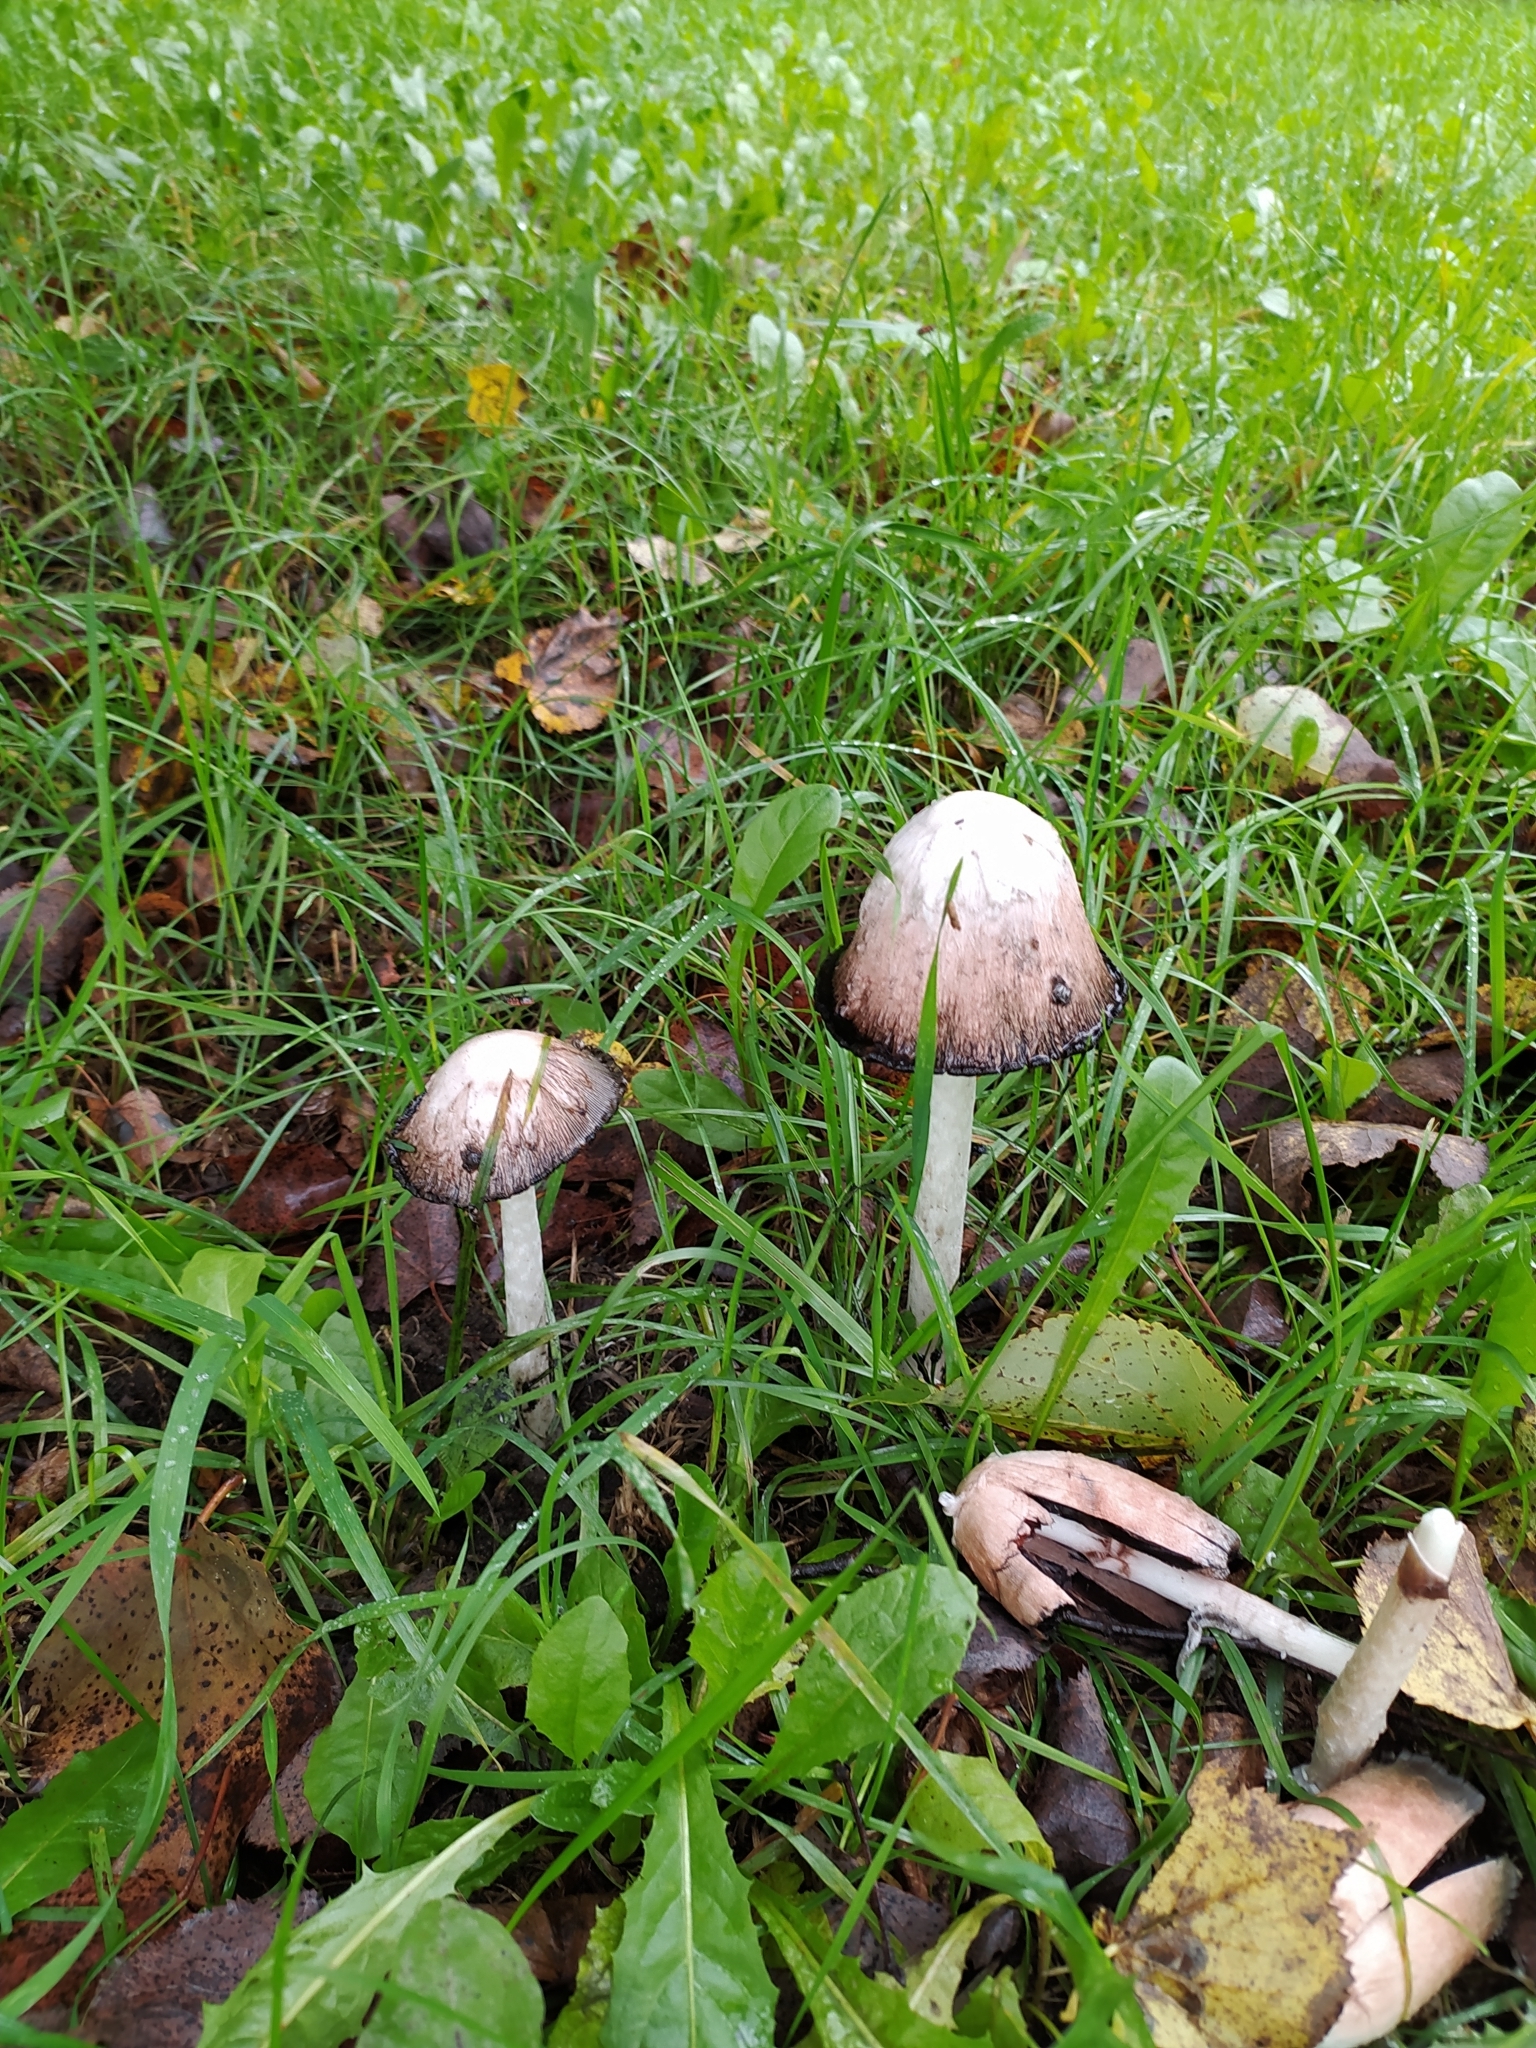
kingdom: Fungi
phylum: Basidiomycota
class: Agaricomycetes
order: Agaricales
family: Agaricaceae
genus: Coprinus
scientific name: Coprinus comatus
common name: Lawyer's wig
